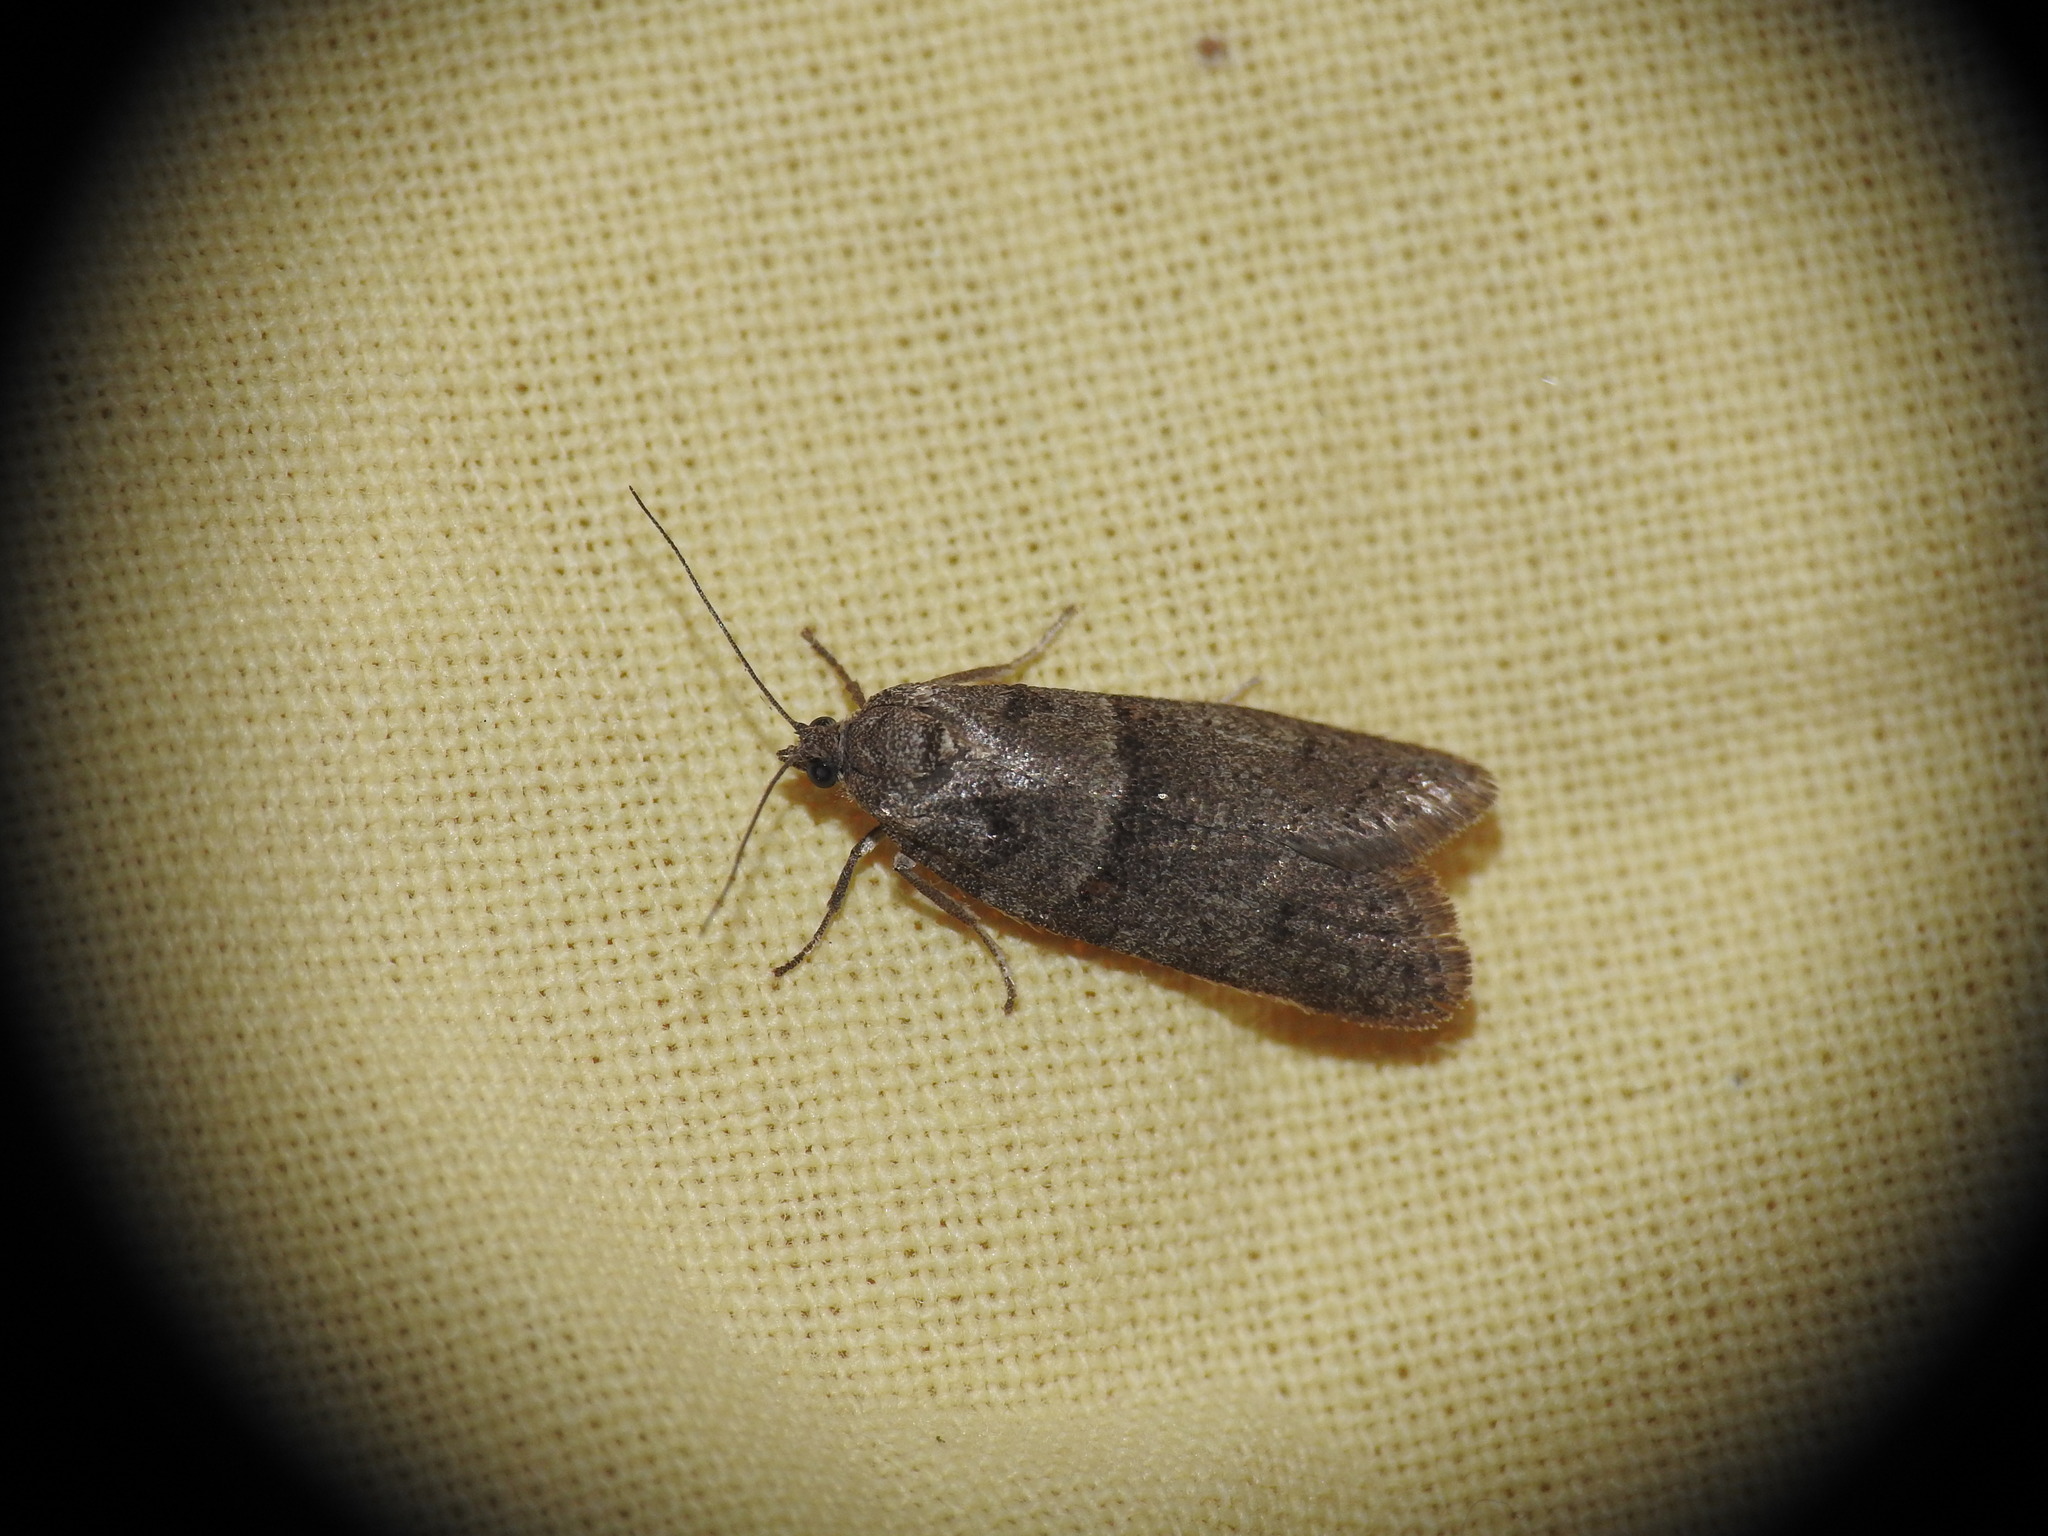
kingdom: Animalia
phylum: Arthropoda
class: Insecta
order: Lepidoptera
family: Tortricidae
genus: Tortricodes
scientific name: Tortricodes alternella
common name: Winter shade
